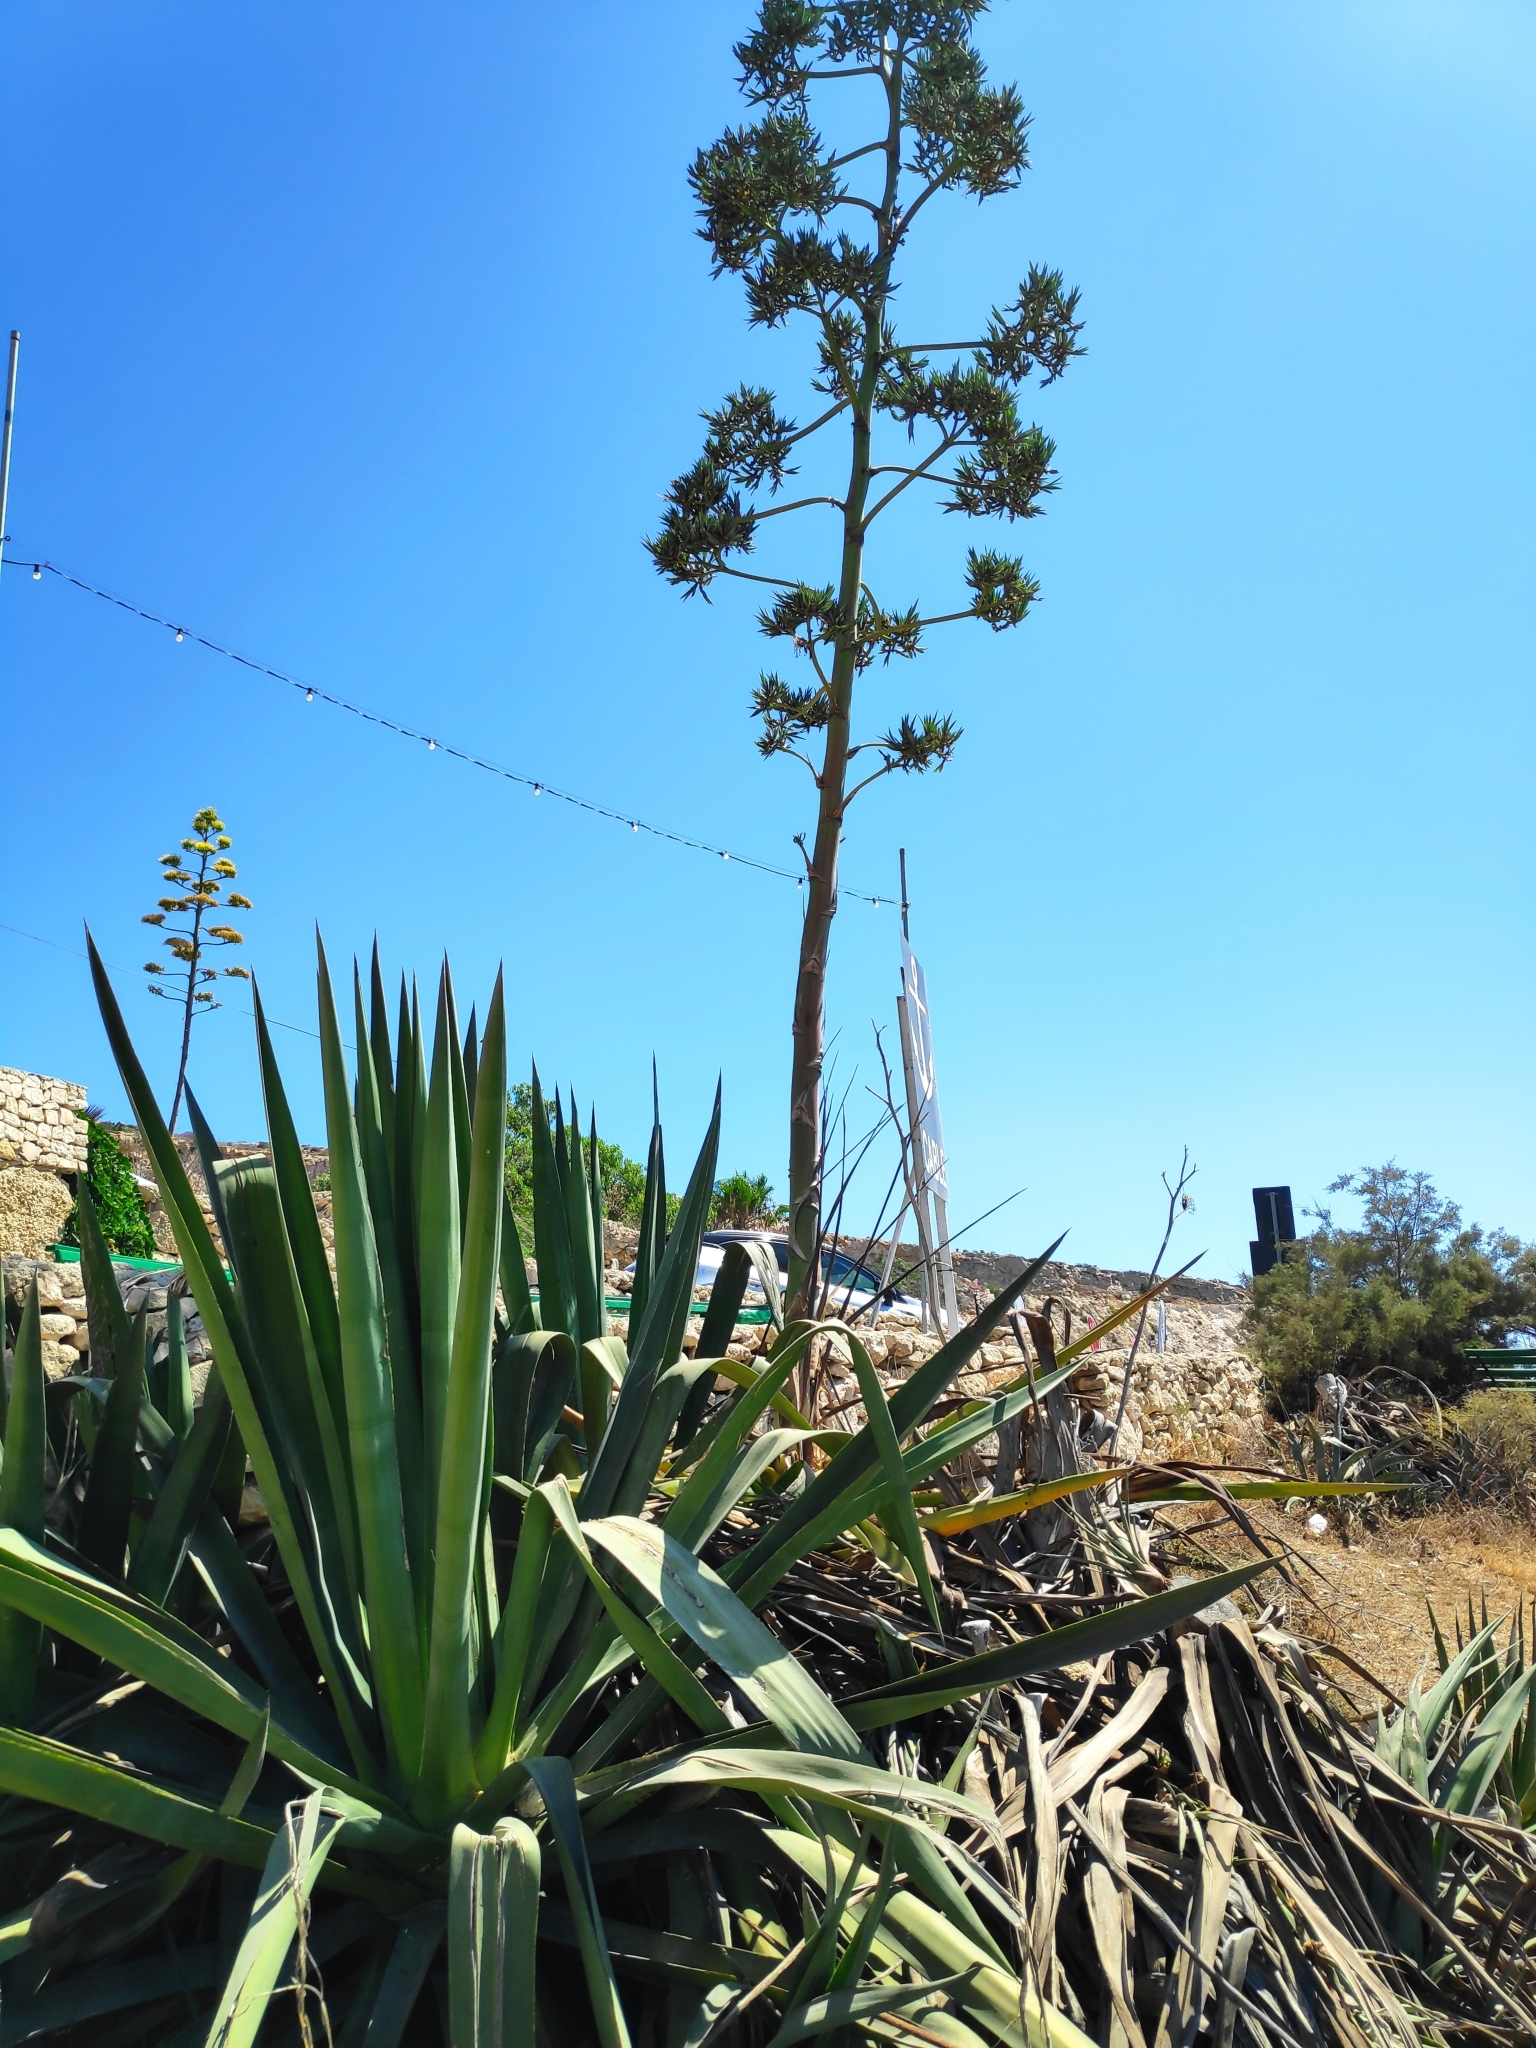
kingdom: Plantae
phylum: Tracheophyta
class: Liliopsida
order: Asparagales
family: Asparagaceae
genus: Agave
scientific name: Agave sisalana
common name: Sisal hemp
